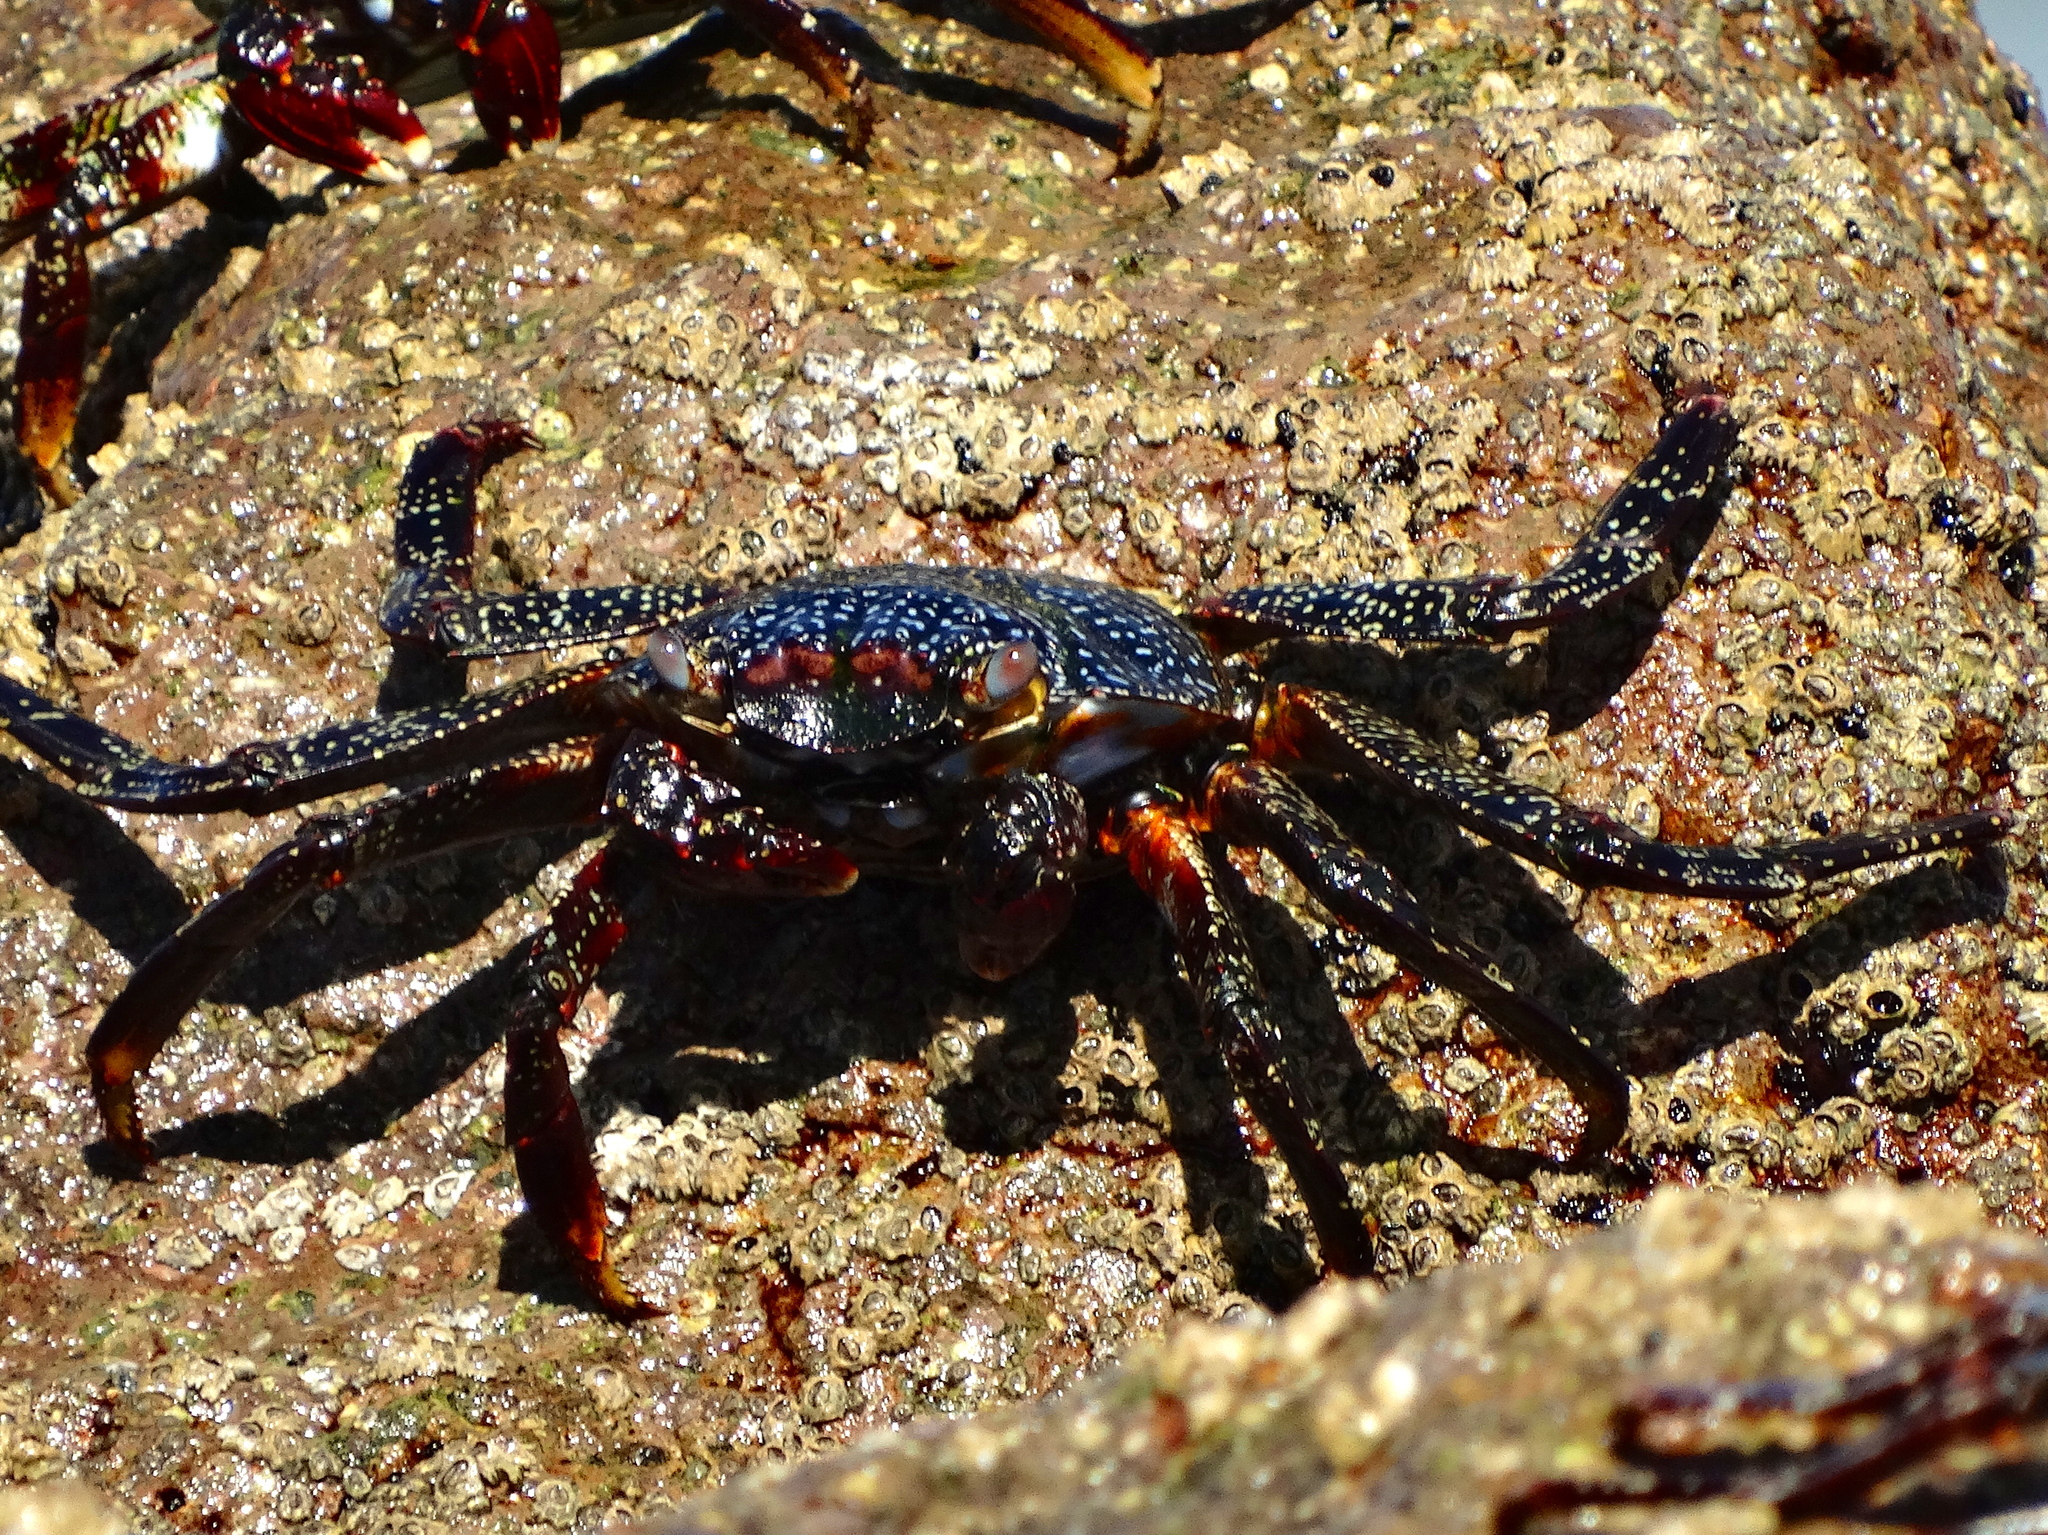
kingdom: Animalia
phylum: Arthropoda
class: Malacostraca
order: Decapoda
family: Grapsidae
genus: Grapsus
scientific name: Grapsus grapsus
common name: Sally lightfoot
